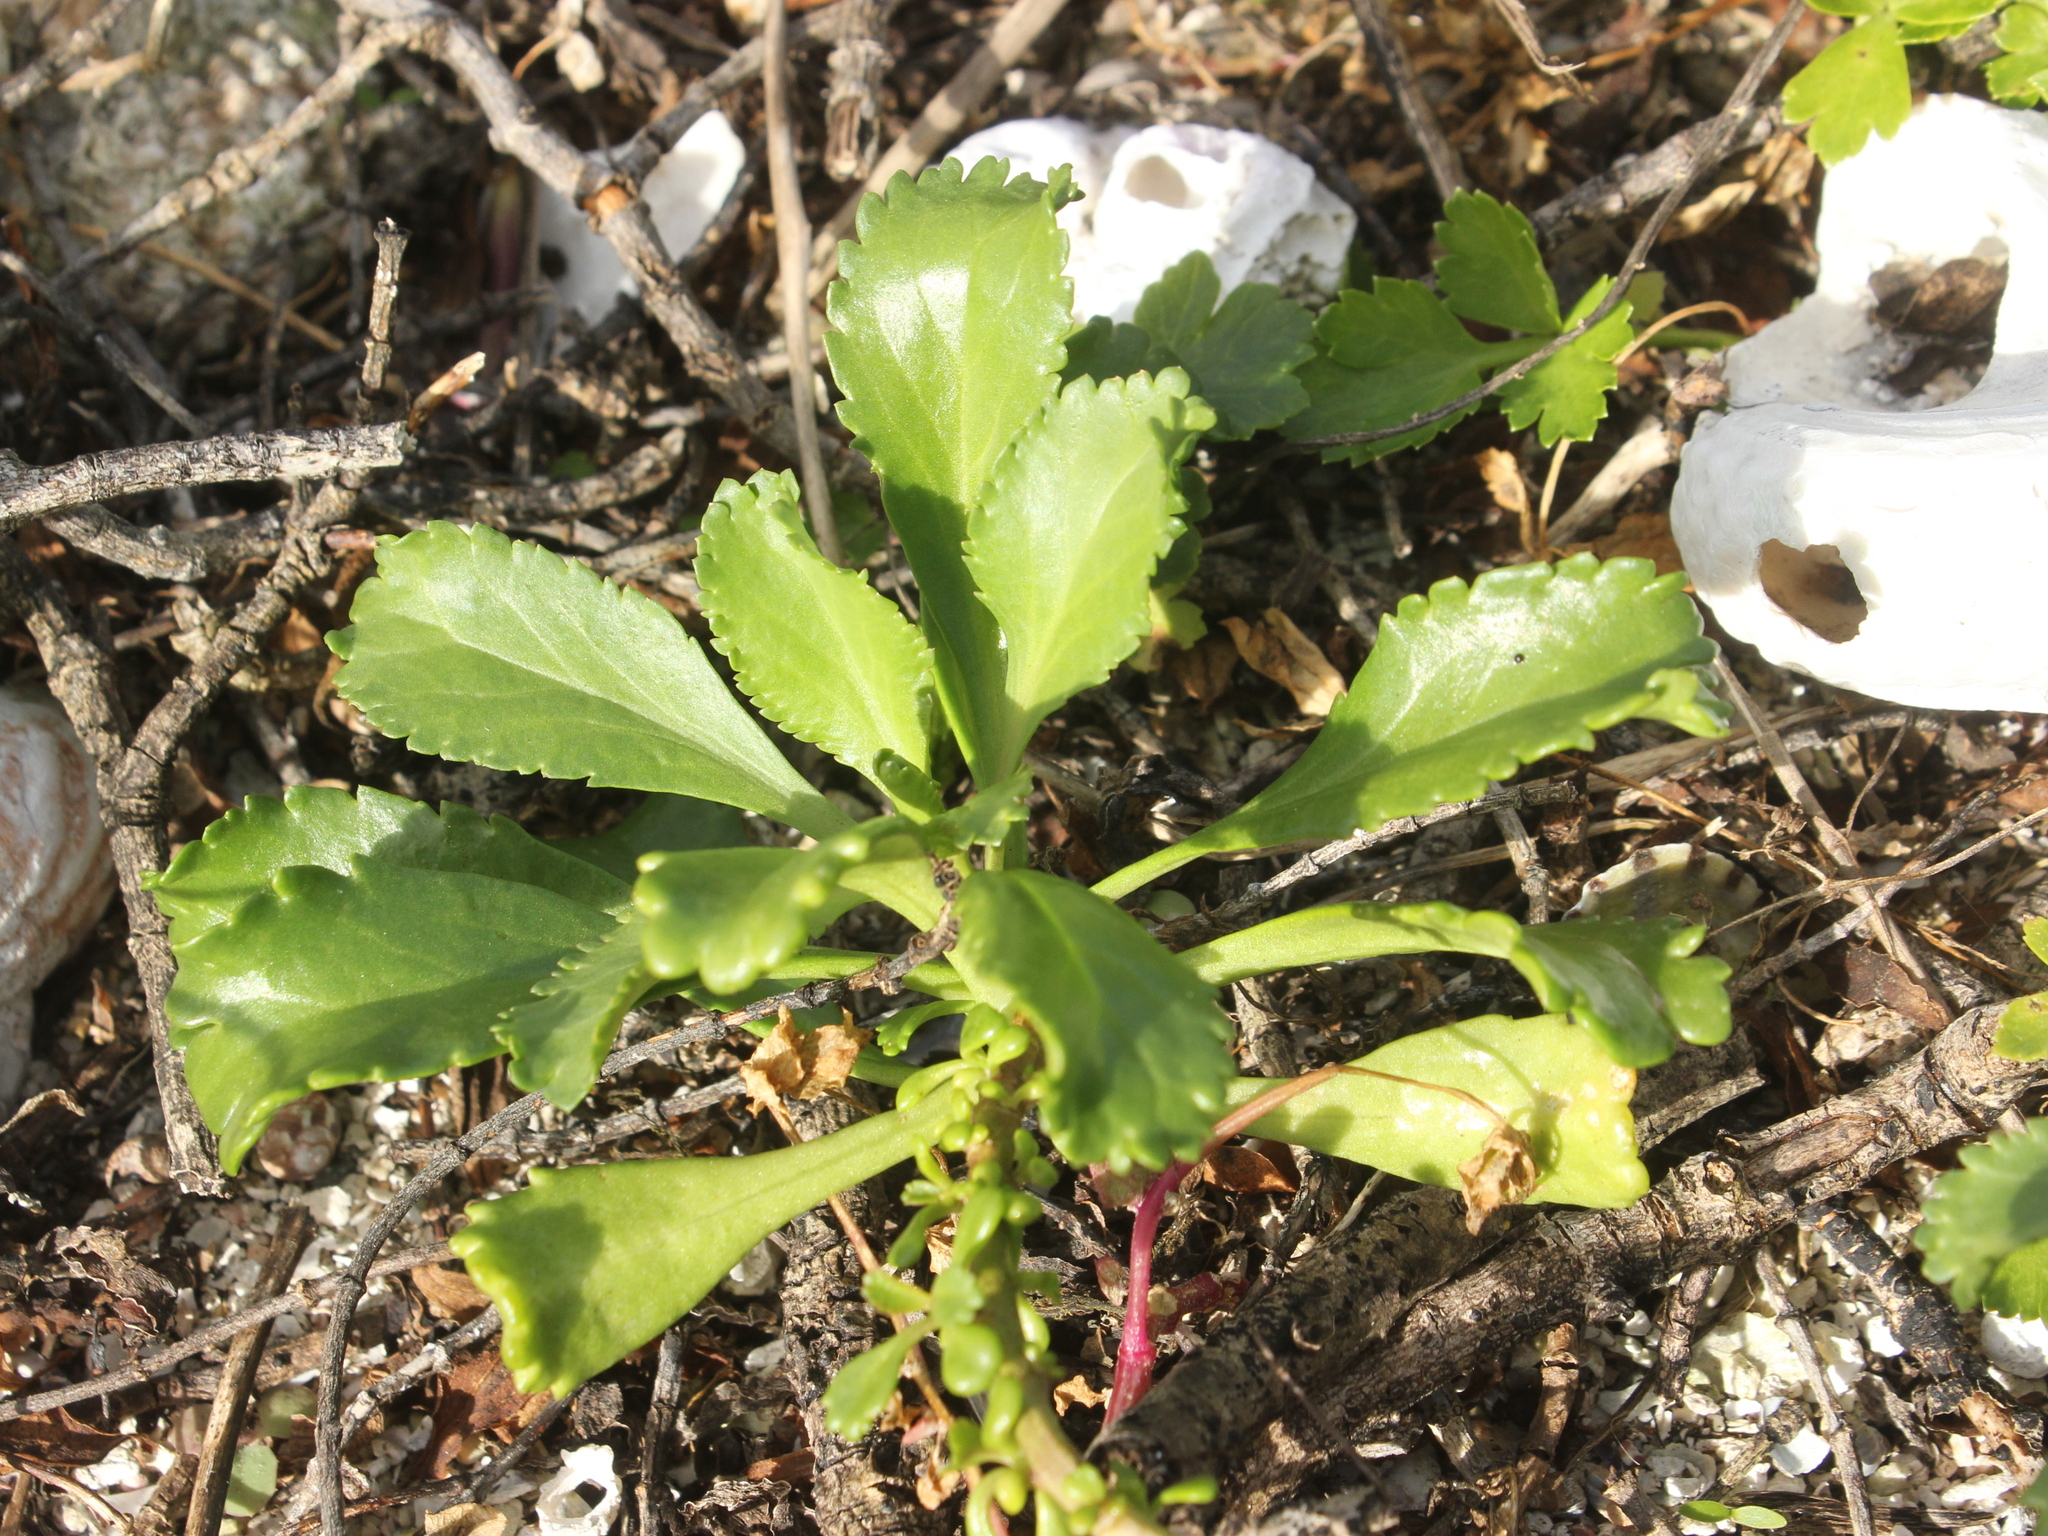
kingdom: Plantae
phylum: Tracheophyta
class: Magnoliopsida
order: Brassicales
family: Brassicaceae
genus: Lepidium
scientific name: Lepidium rekohuense
